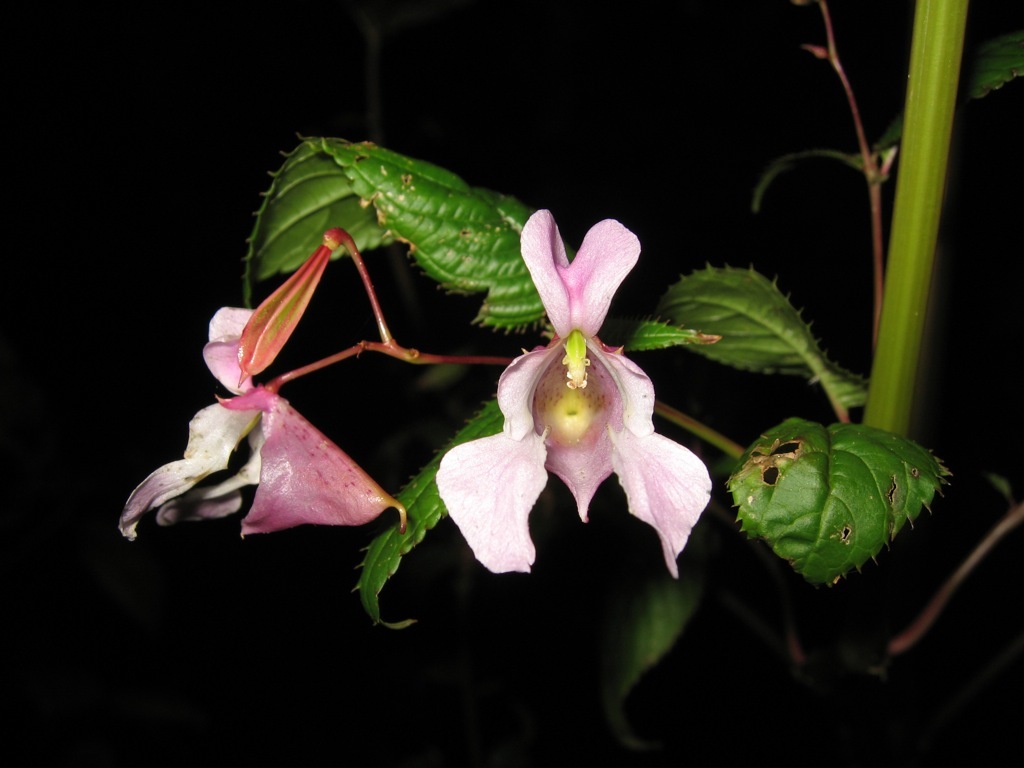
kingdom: Plantae
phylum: Tracheophyta
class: Magnoliopsida
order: Ericales
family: Balsaminaceae
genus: Impatiens
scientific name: Impatiens glandulifera
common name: Himalayan balsam
